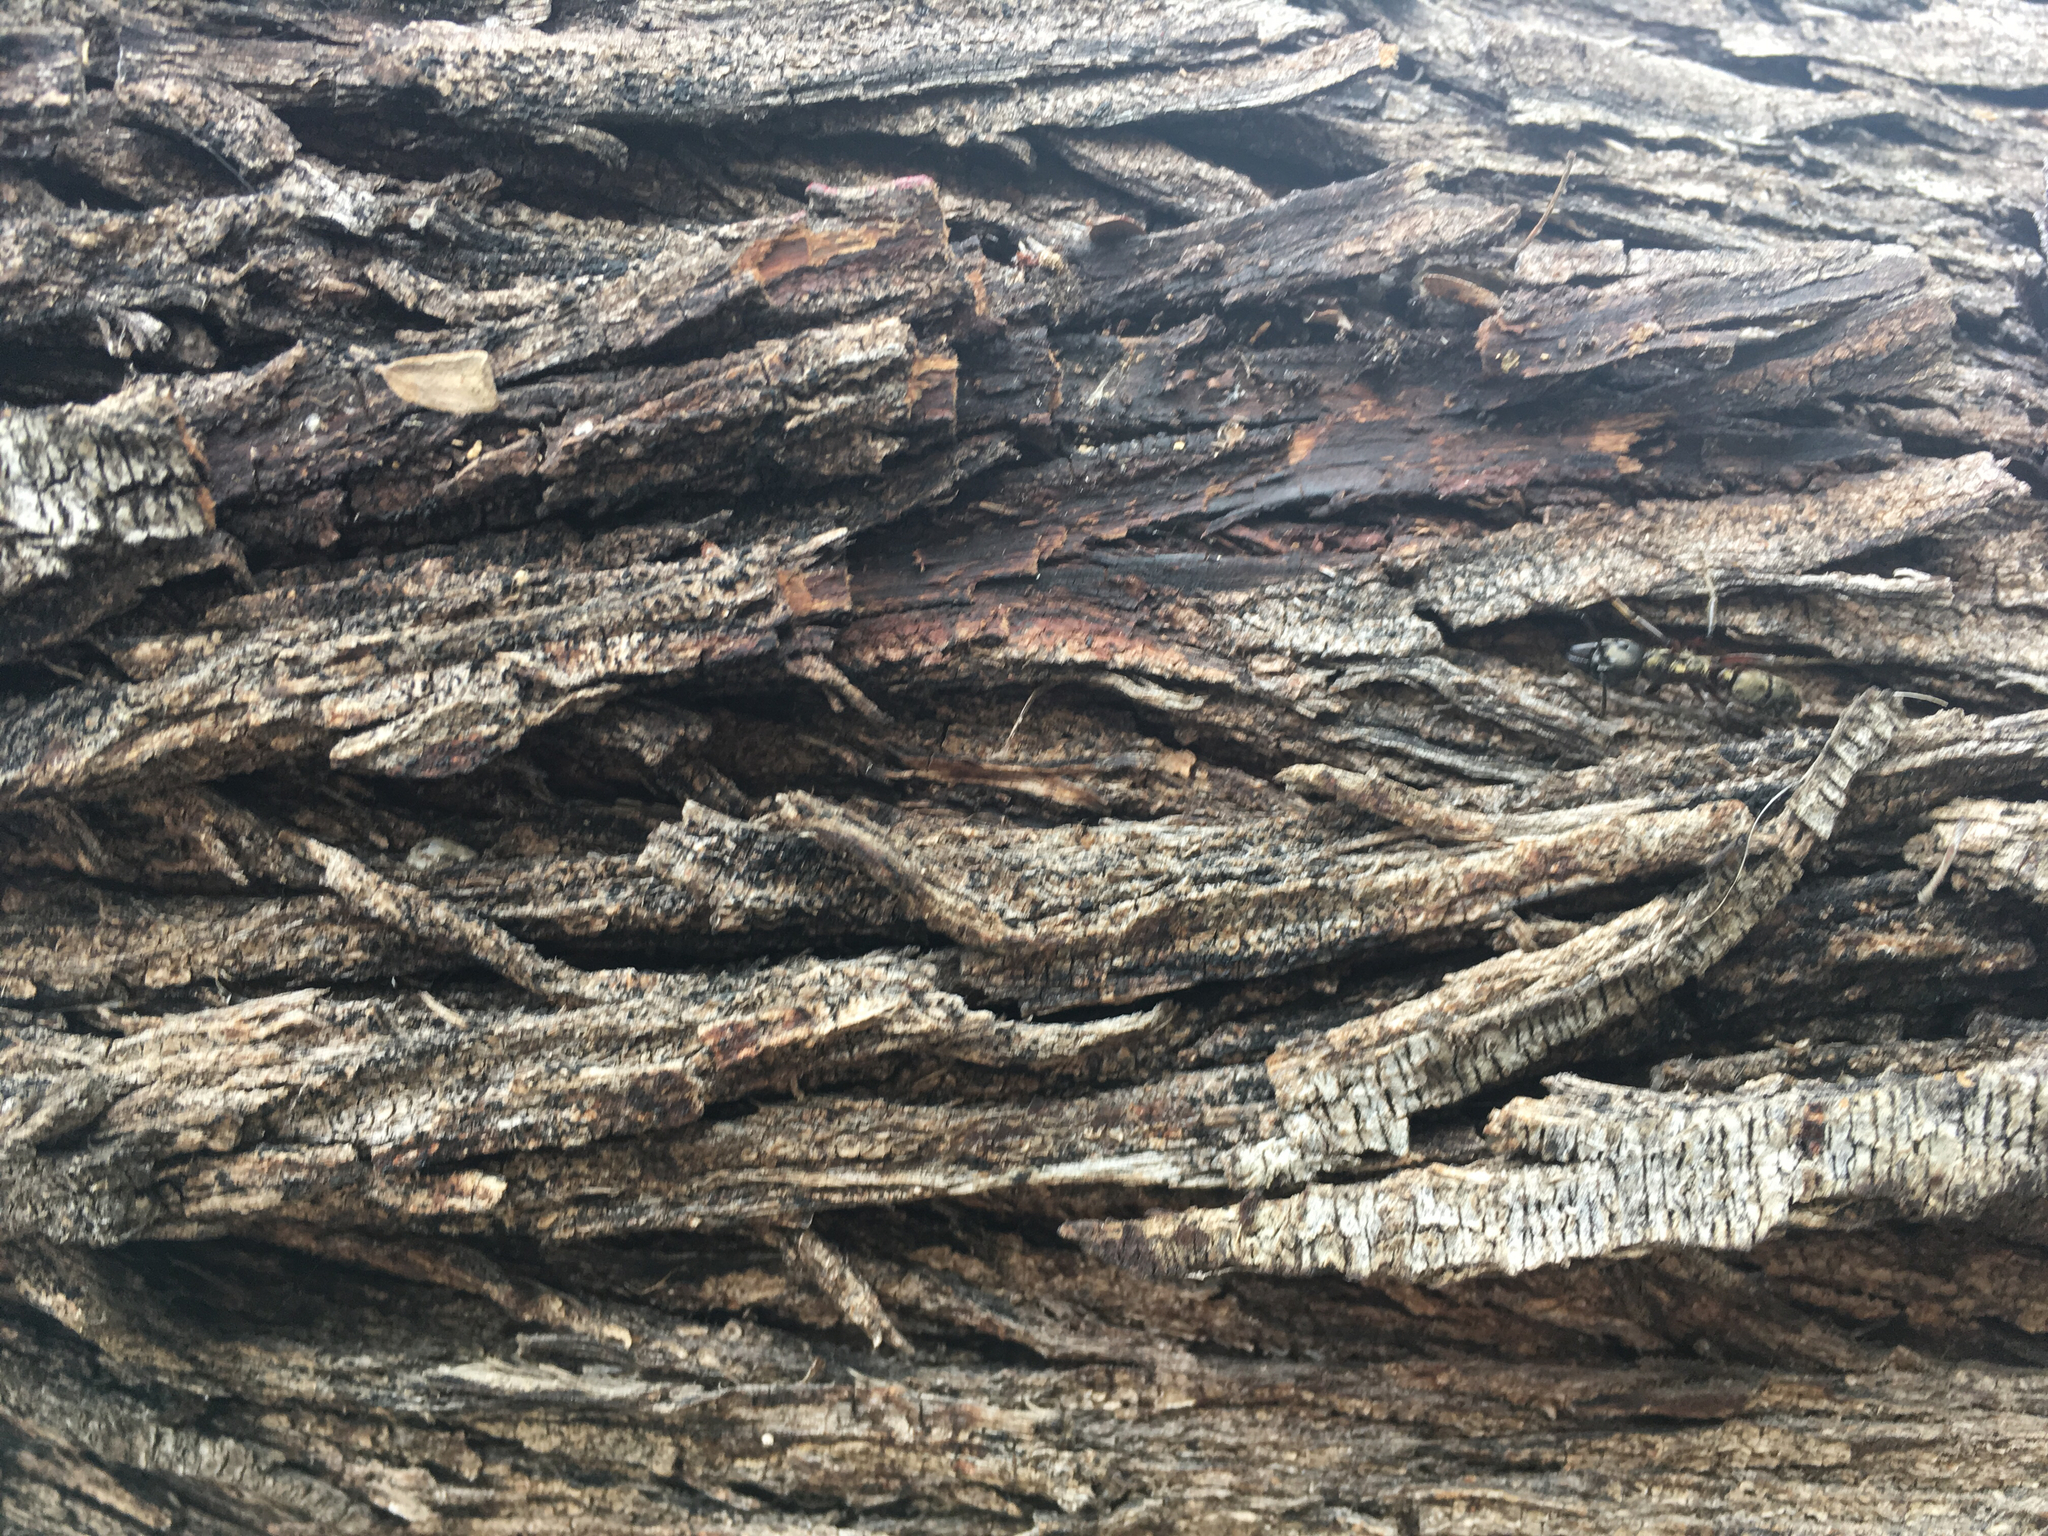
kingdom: Animalia
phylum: Arthropoda
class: Insecta
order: Hymenoptera
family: Formicidae
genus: Pachycondyla
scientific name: Pachycondyla villosa
